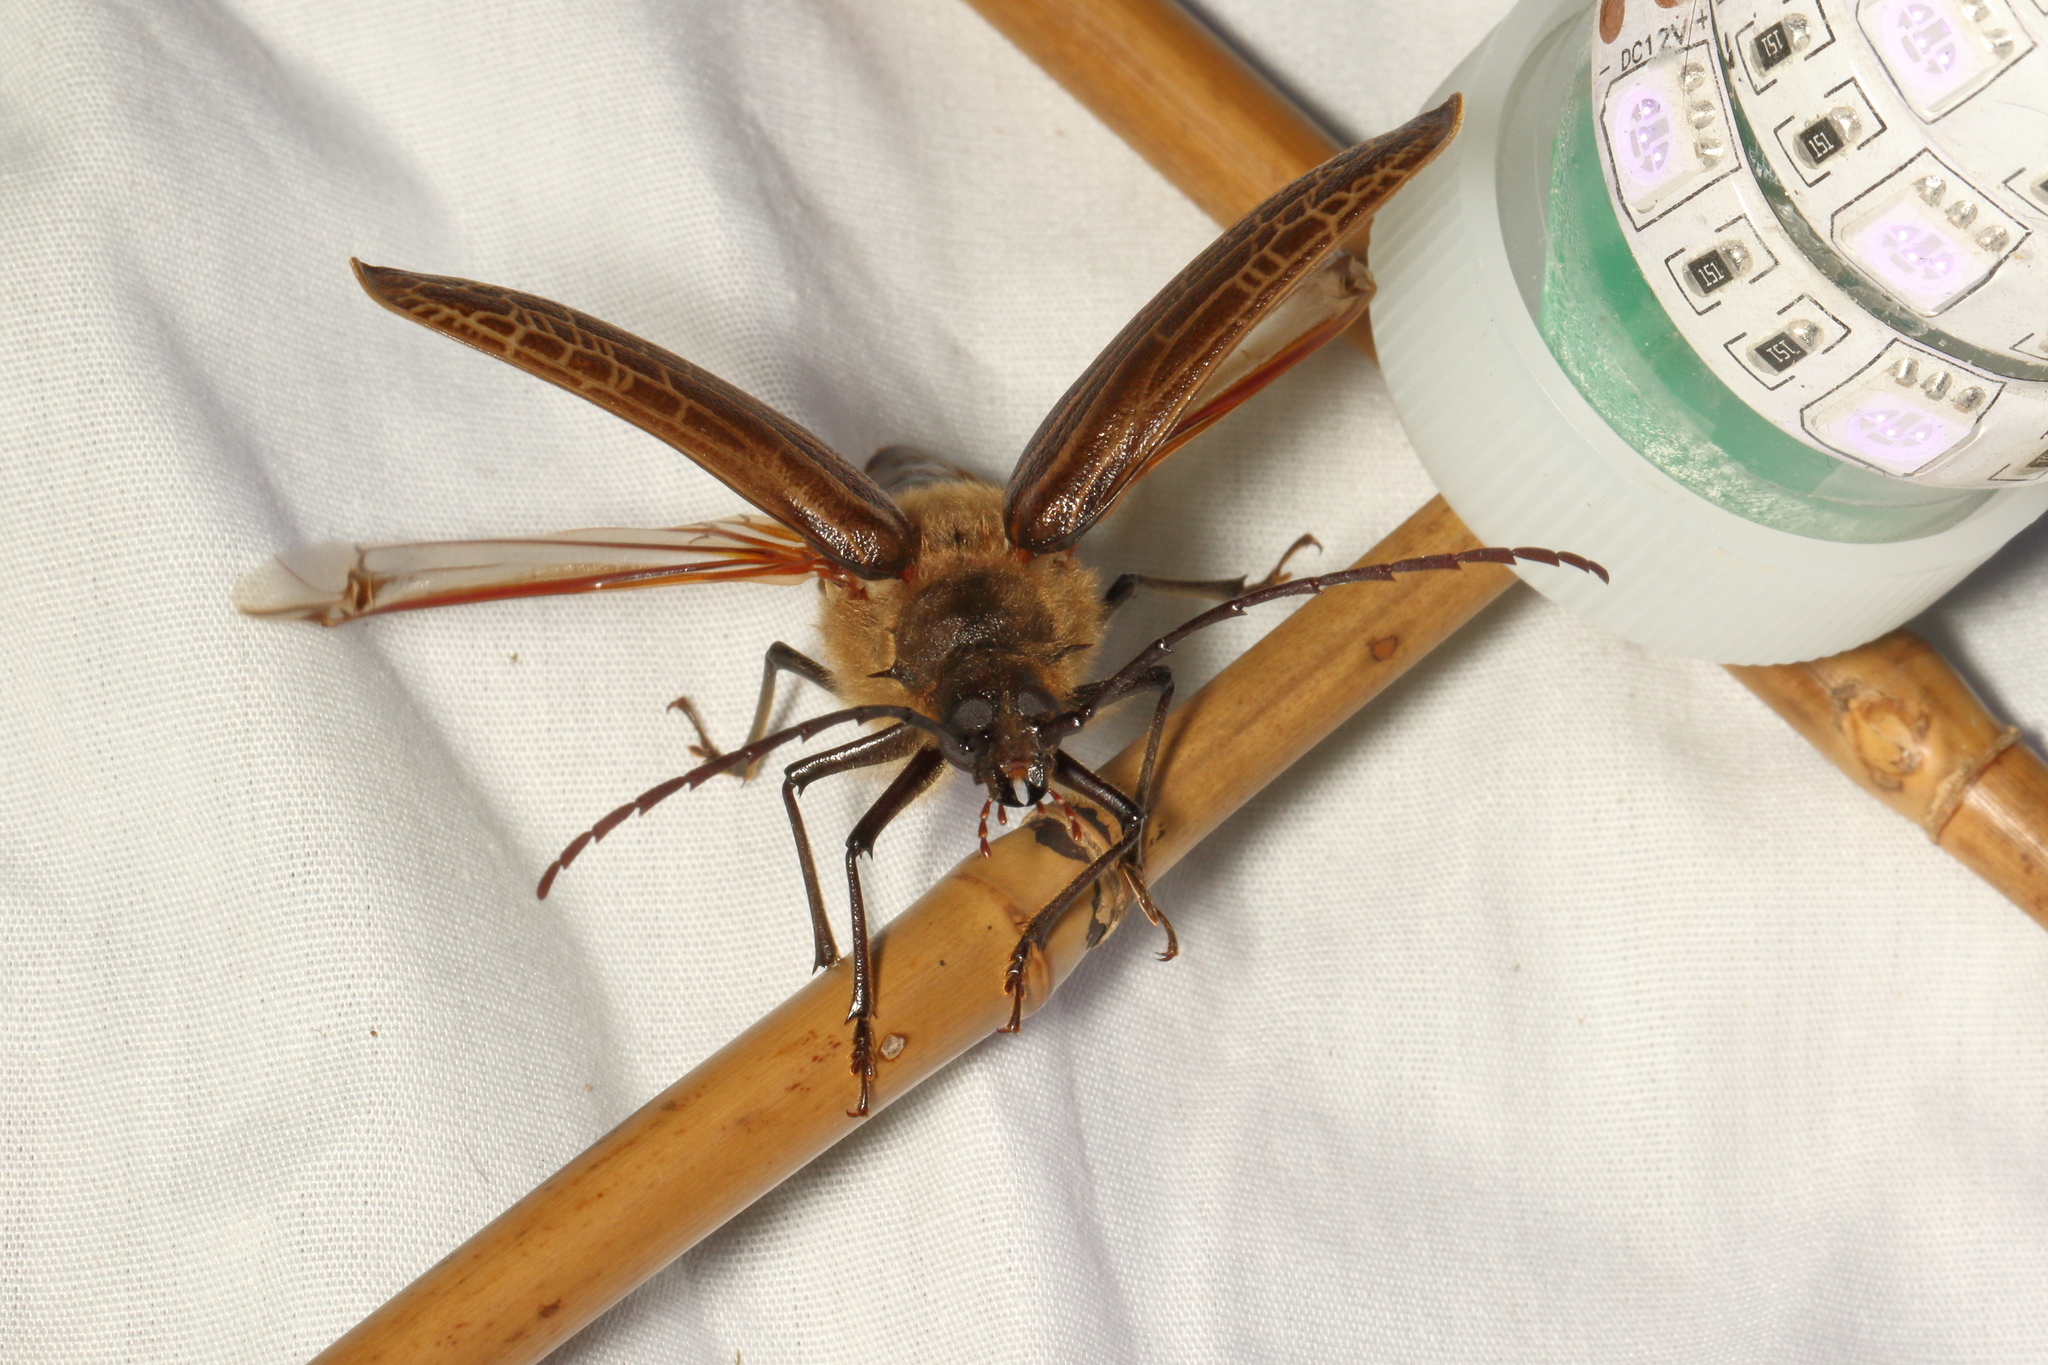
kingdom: Animalia
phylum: Arthropoda
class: Insecta
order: Coleoptera
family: Cerambycidae
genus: Prionoplus
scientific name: Prionoplus reticularis
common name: Huhu beetle
